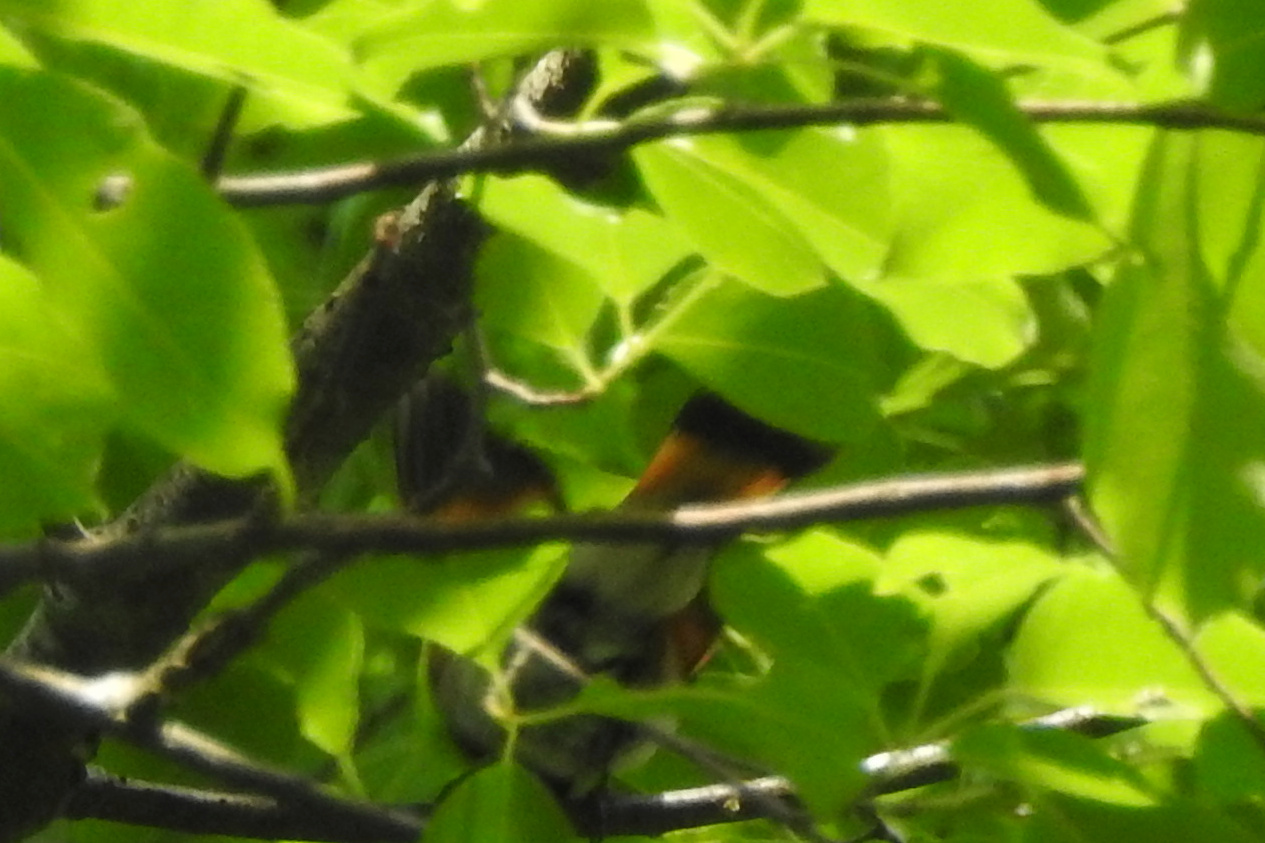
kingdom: Animalia
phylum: Chordata
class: Aves
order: Passeriformes
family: Parulidae
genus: Setophaga
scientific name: Setophaga ruticilla
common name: American redstart
